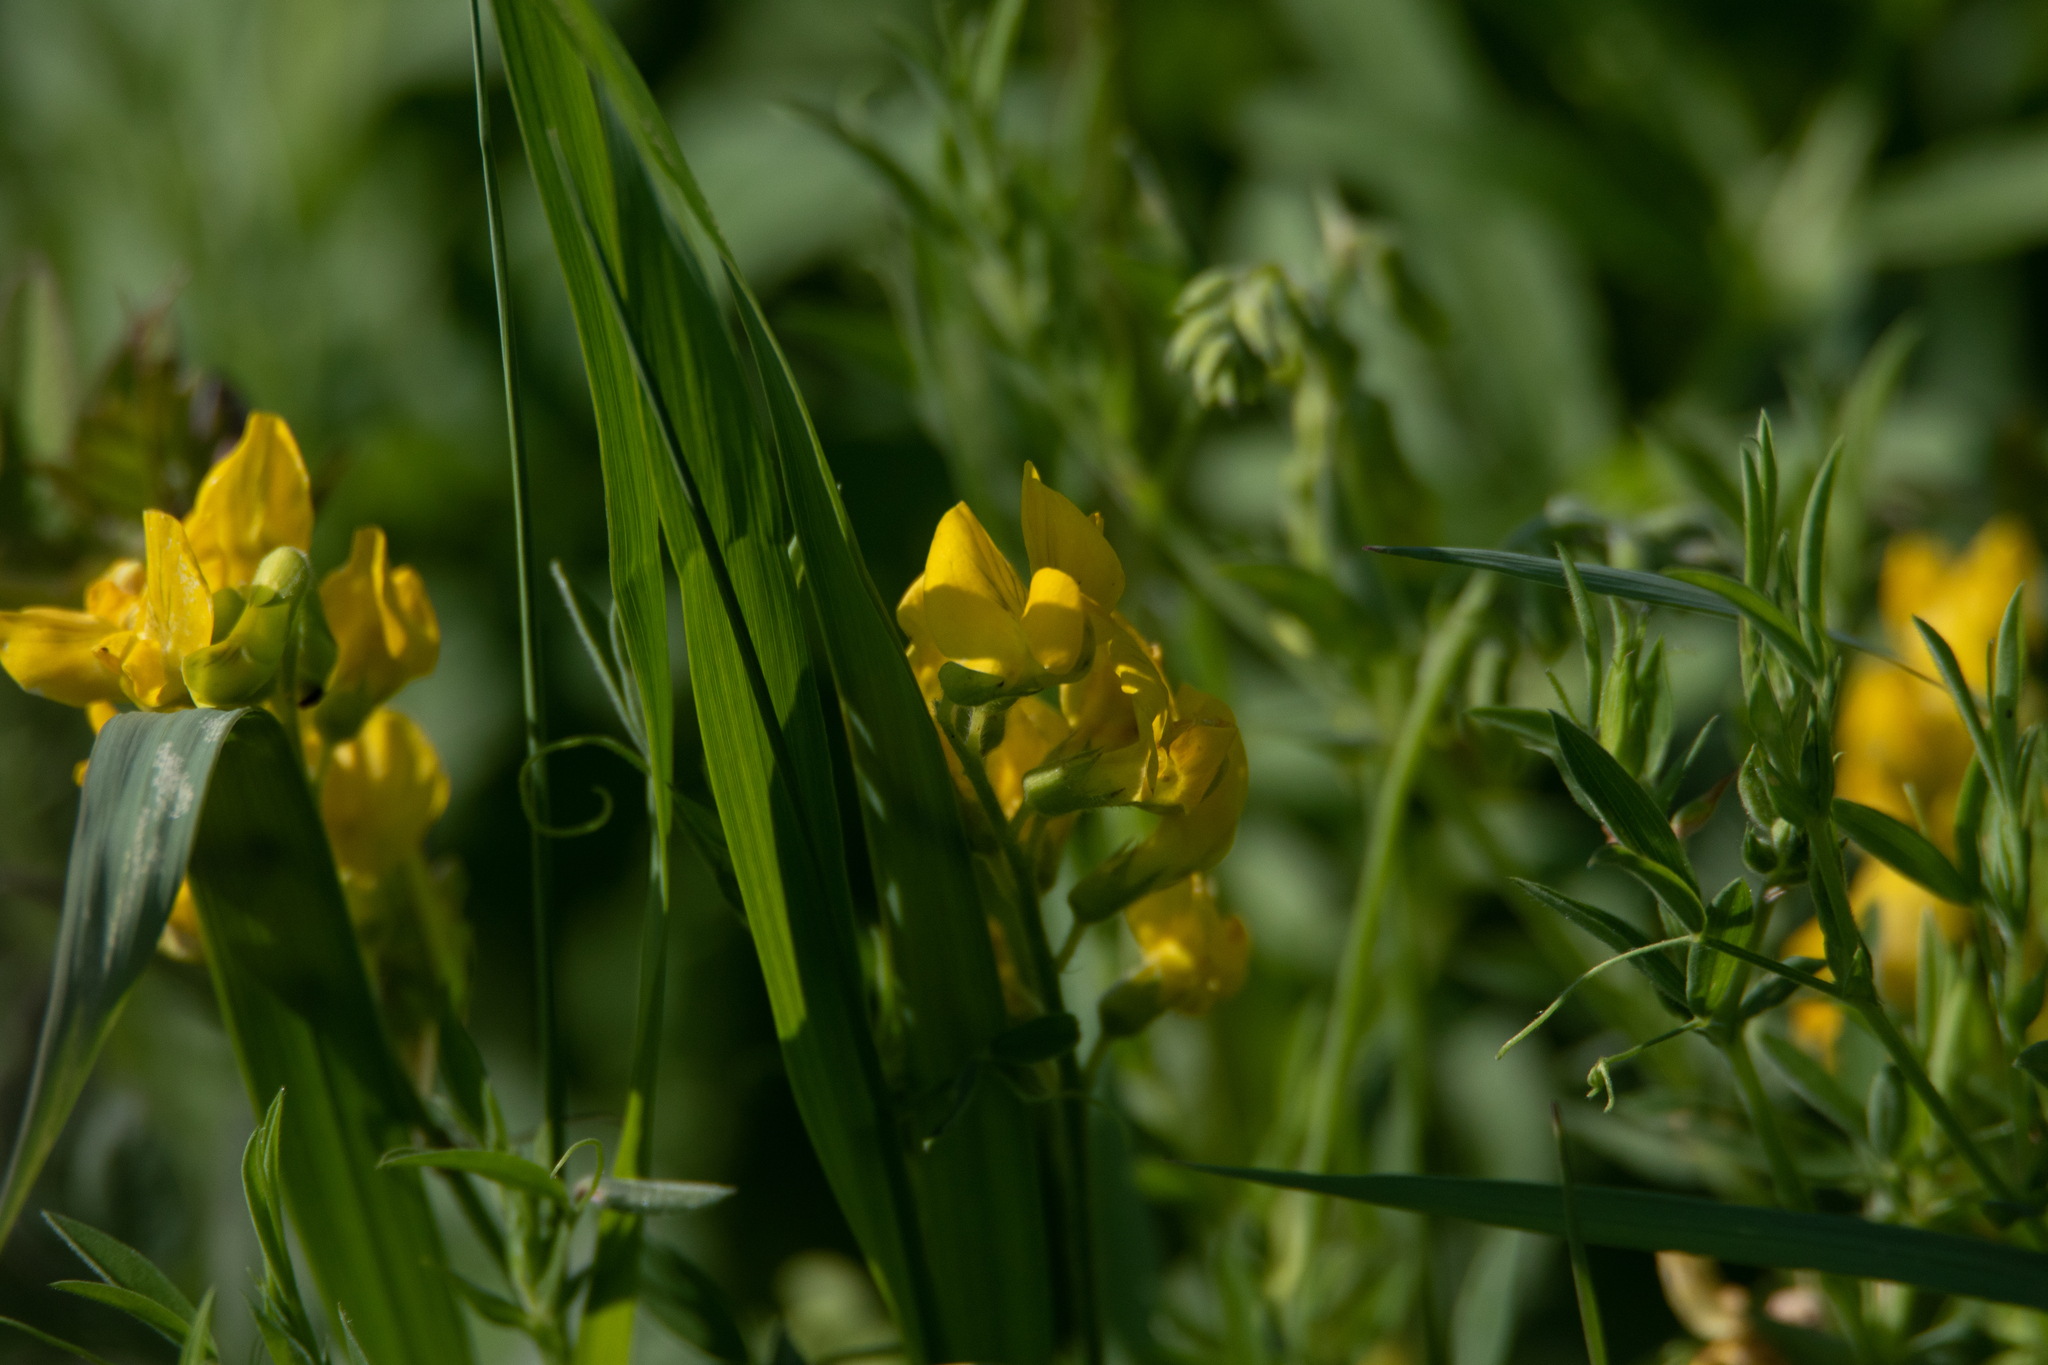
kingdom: Plantae
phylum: Tracheophyta
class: Magnoliopsida
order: Fabales
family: Fabaceae
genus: Lathyrus
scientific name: Lathyrus pratensis
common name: Meadow vetchling
